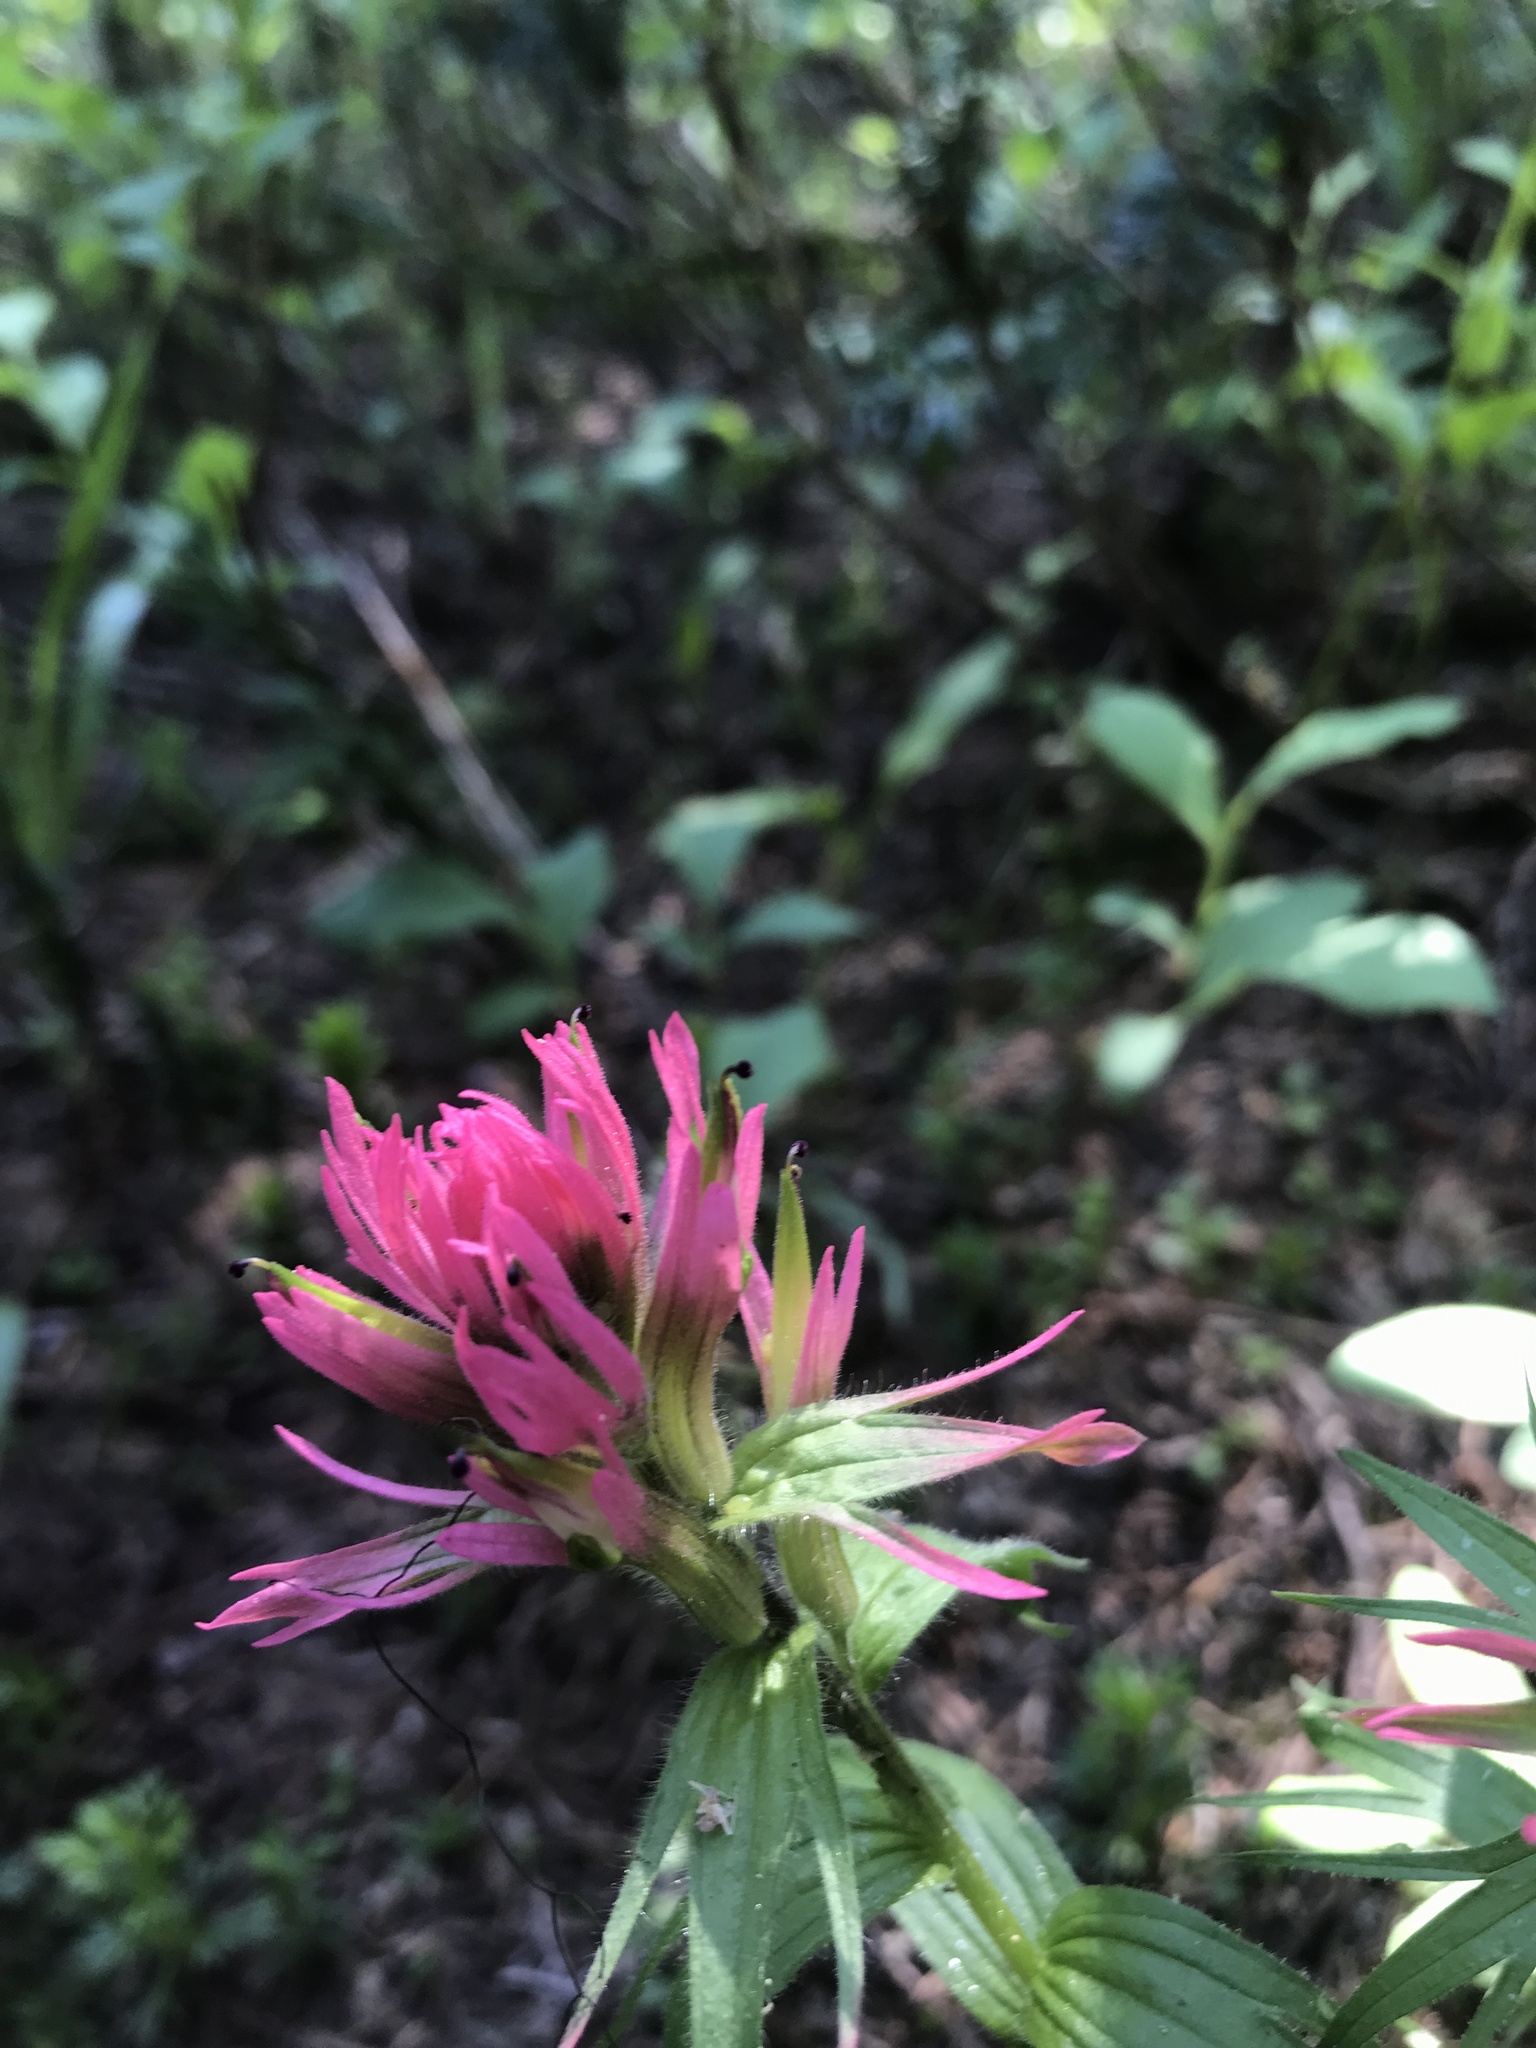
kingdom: Plantae
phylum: Tracheophyta
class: Magnoliopsida
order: Lamiales
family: Orobanchaceae
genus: Castilleja
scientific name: Castilleja parviflora
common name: Mountain paintbrush
